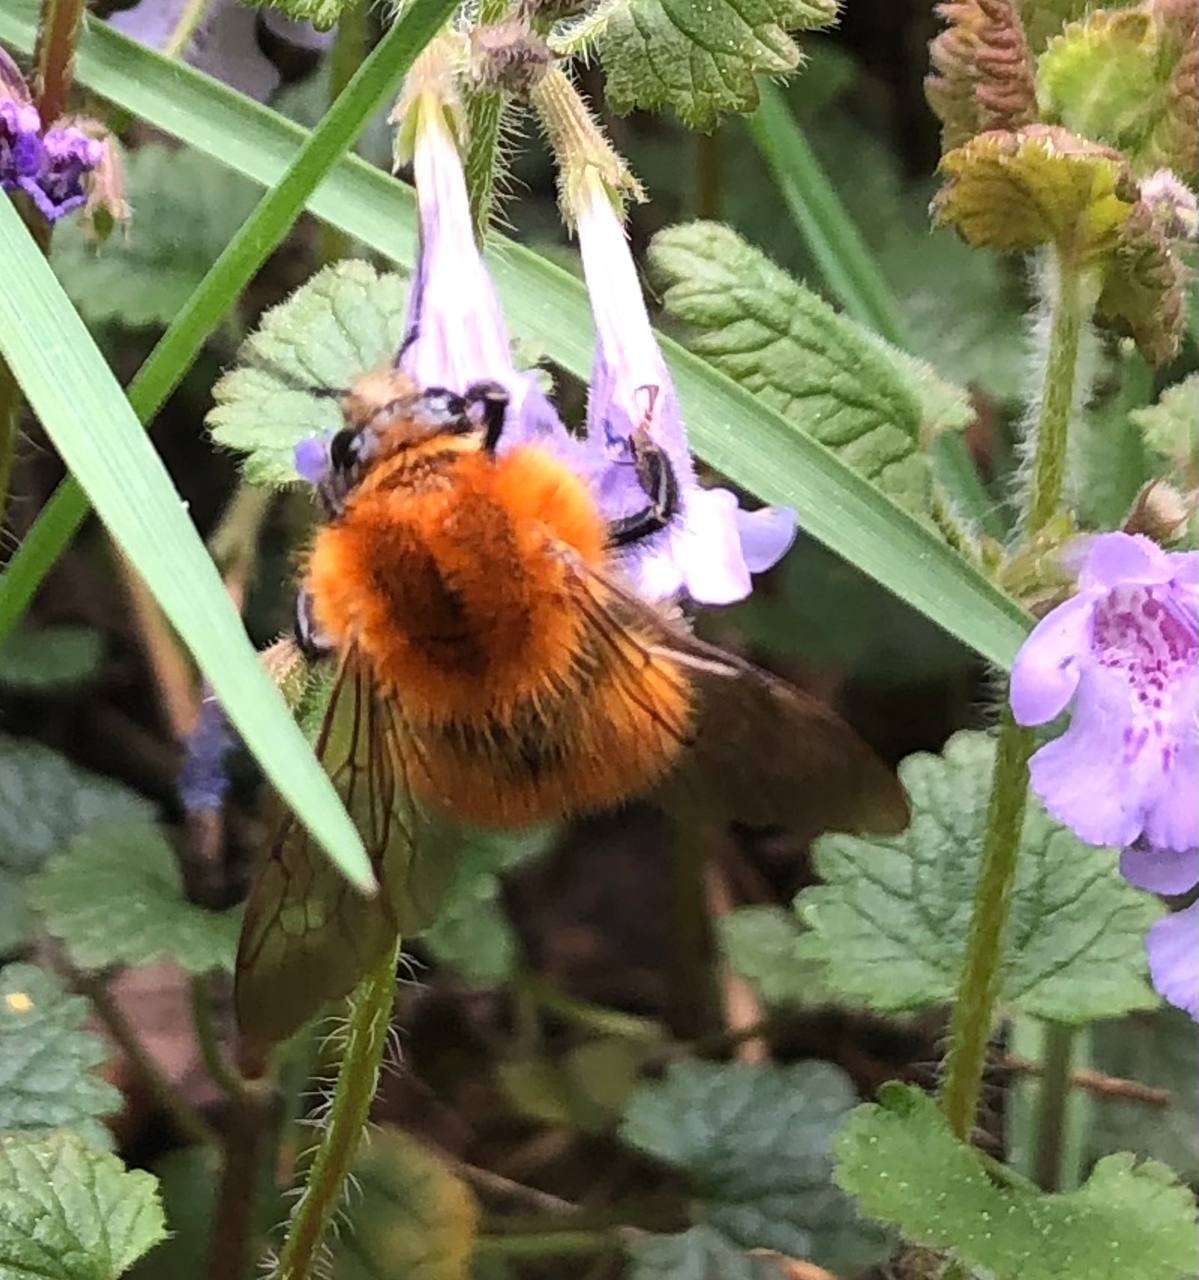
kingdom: Animalia
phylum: Arthropoda
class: Insecta
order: Hymenoptera
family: Apidae
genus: Bombus
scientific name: Bombus pascuorum
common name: Common carder bee
